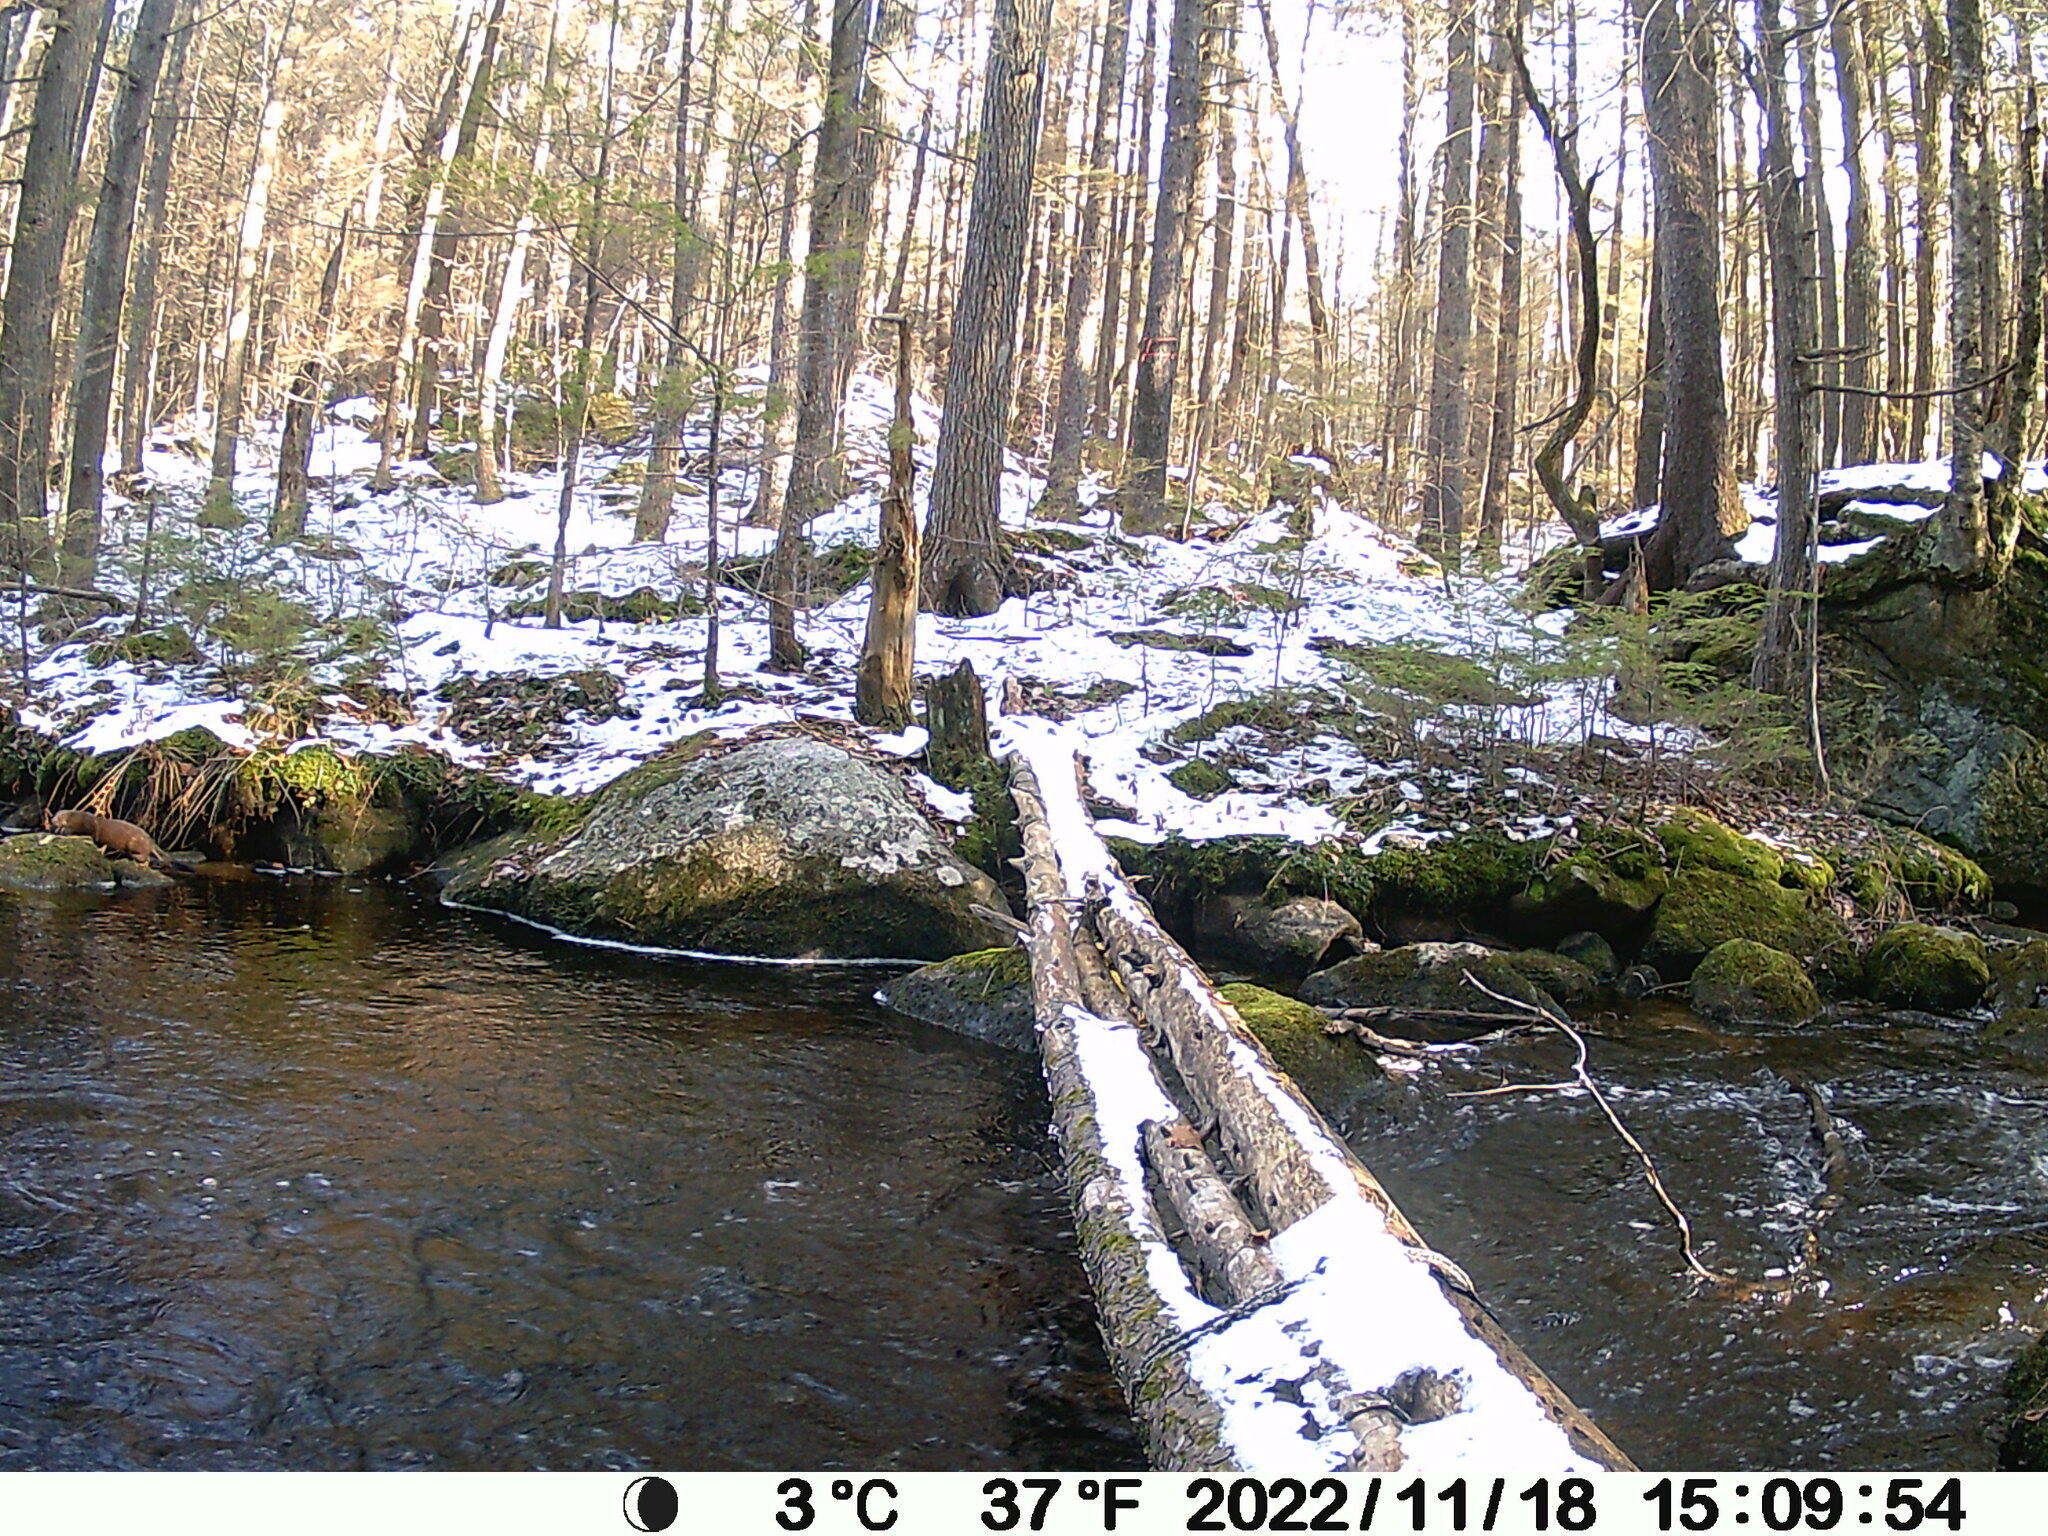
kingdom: Animalia
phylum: Chordata
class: Mammalia
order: Carnivora
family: Mustelidae
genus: Mustela
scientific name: Mustela
